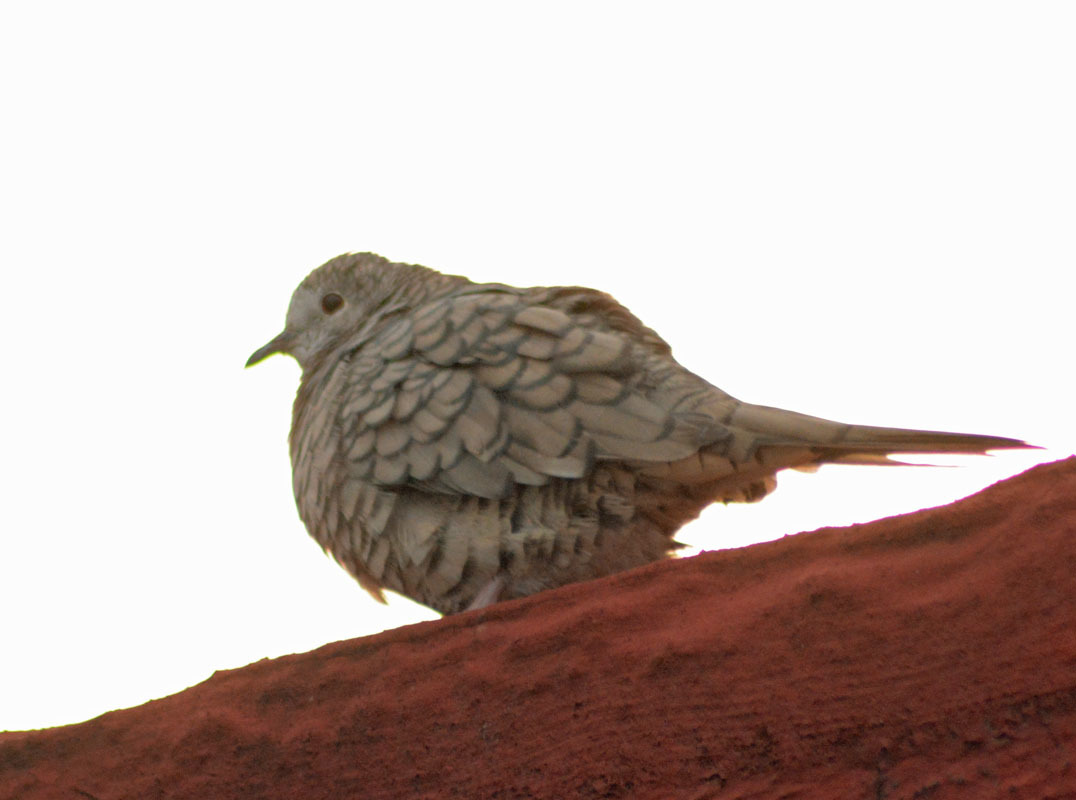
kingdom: Animalia
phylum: Chordata
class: Aves
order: Columbiformes
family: Columbidae
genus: Columbina
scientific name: Columbina inca
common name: Inca dove
